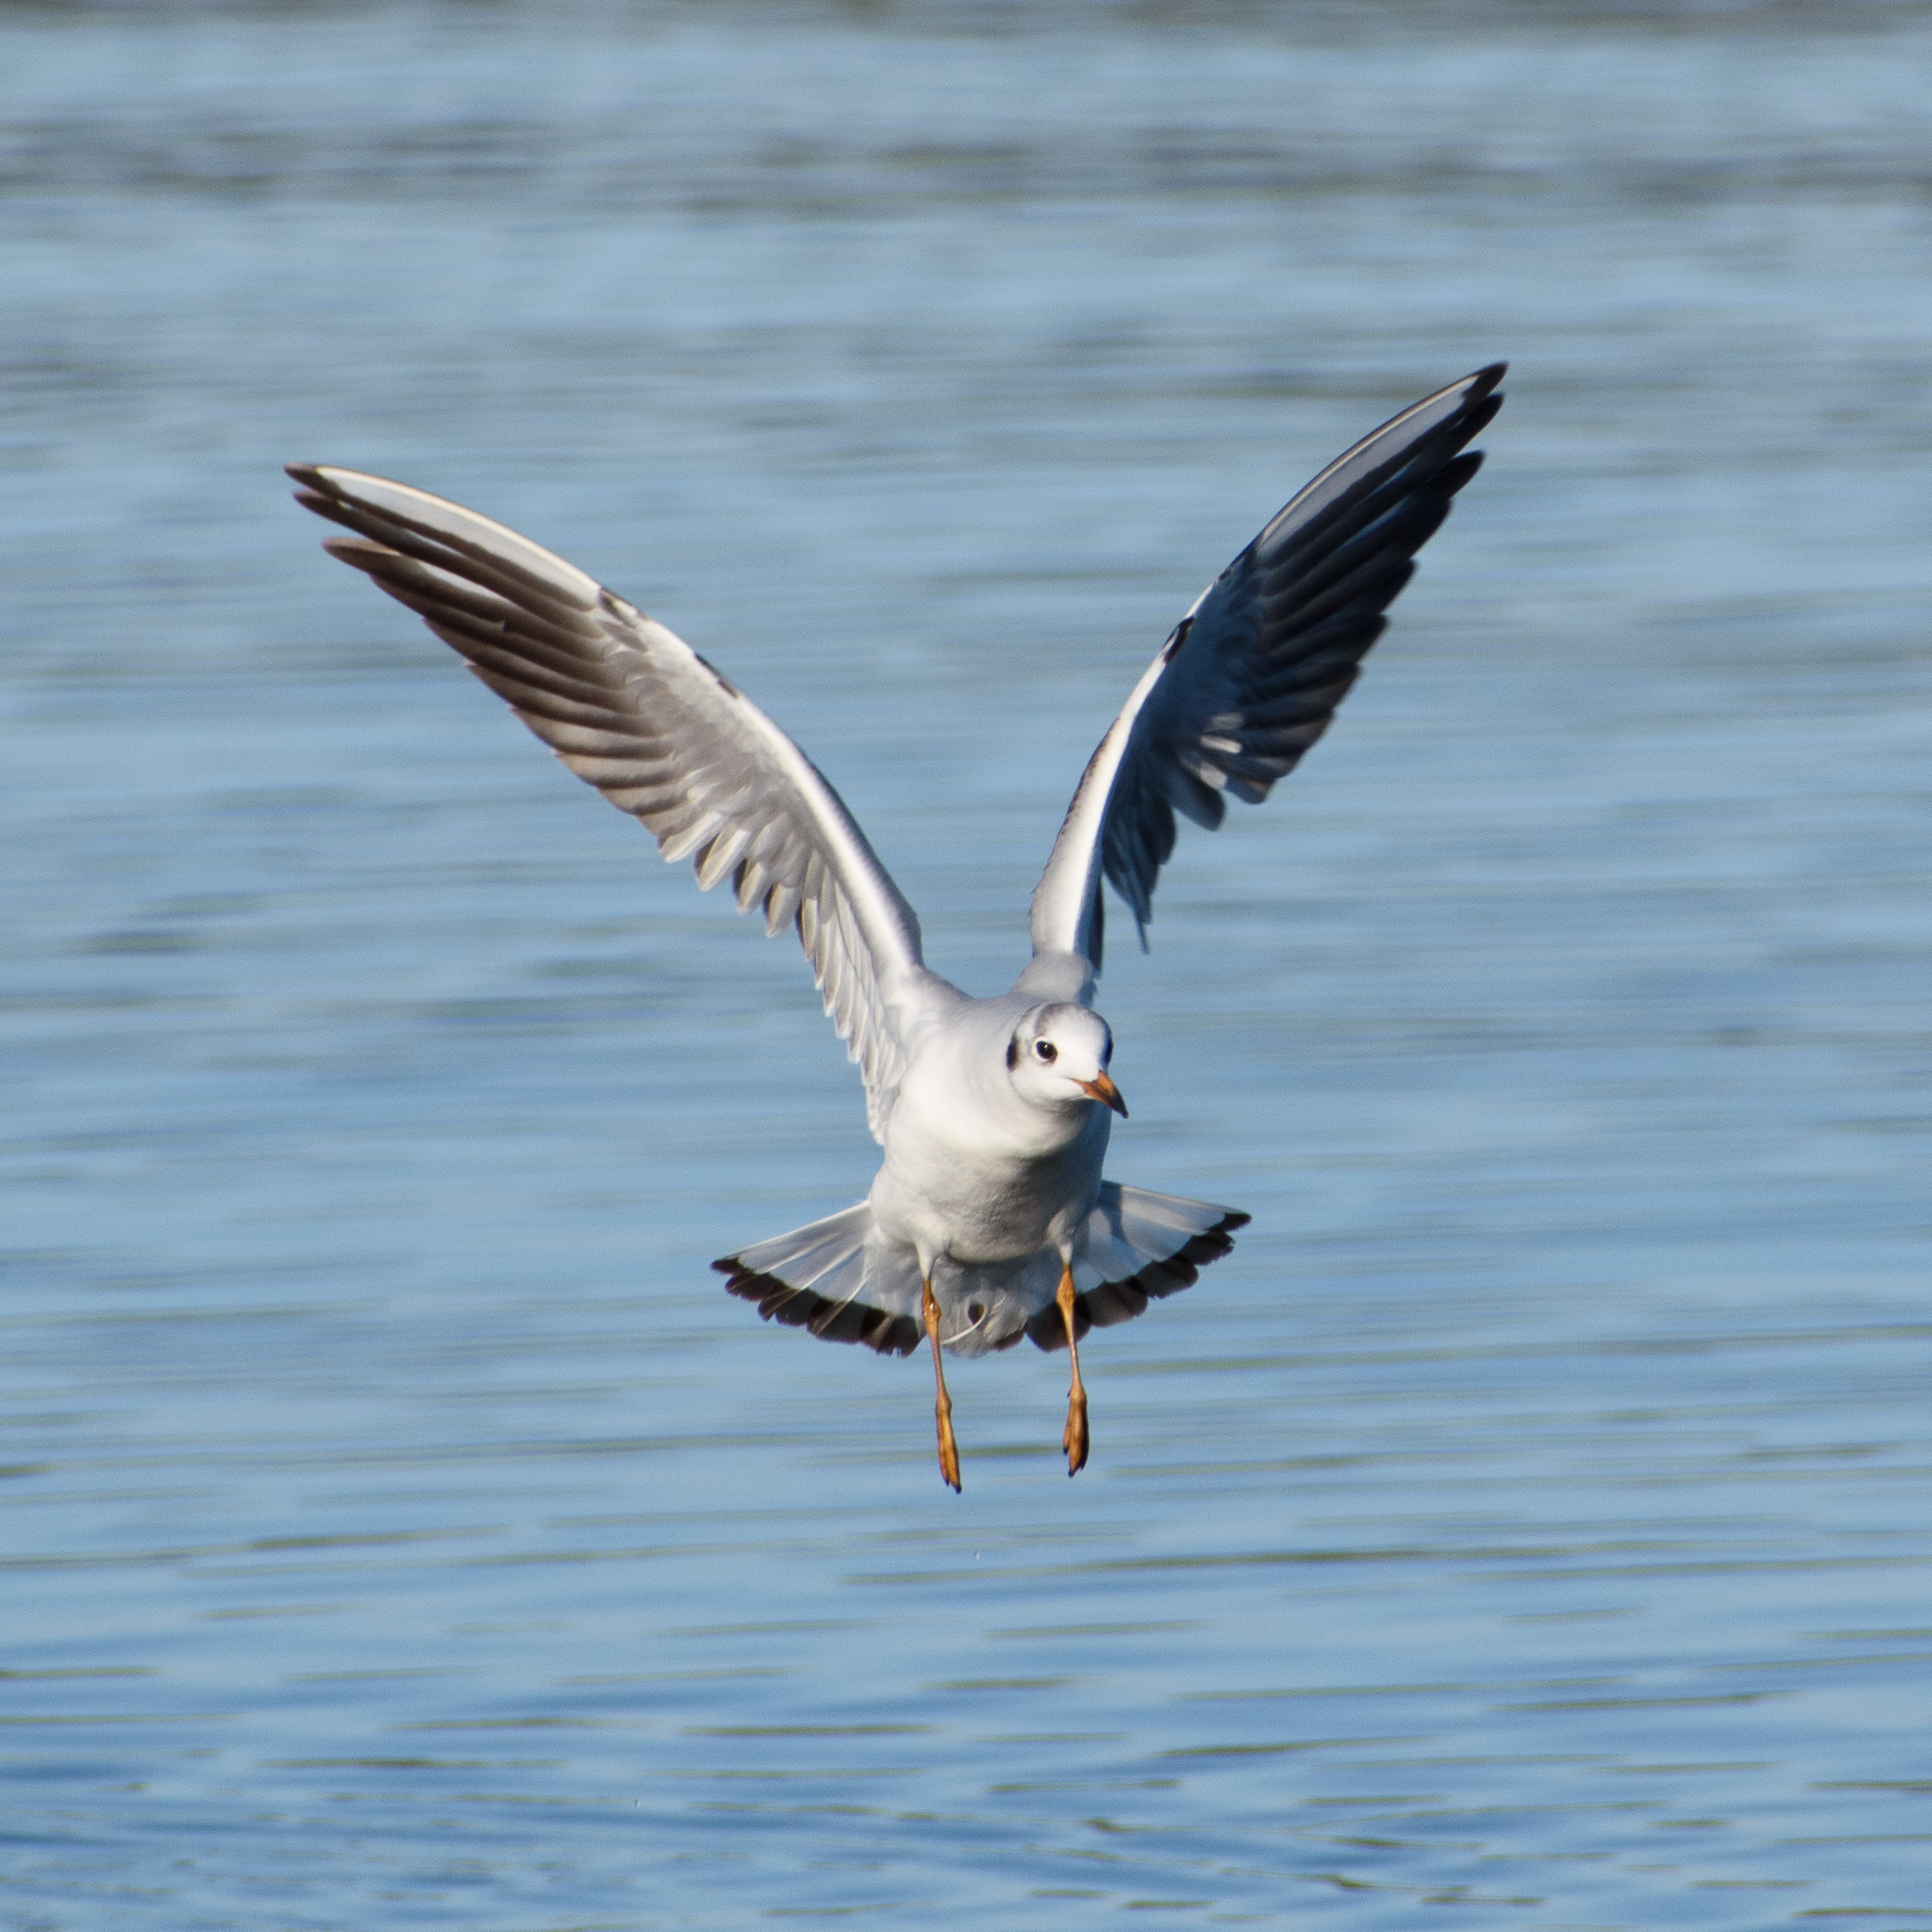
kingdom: Animalia
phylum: Chordata
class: Aves
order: Charadriiformes
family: Laridae
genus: Chroicocephalus
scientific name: Chroicocephalus ridibundus
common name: Black-headed gull
